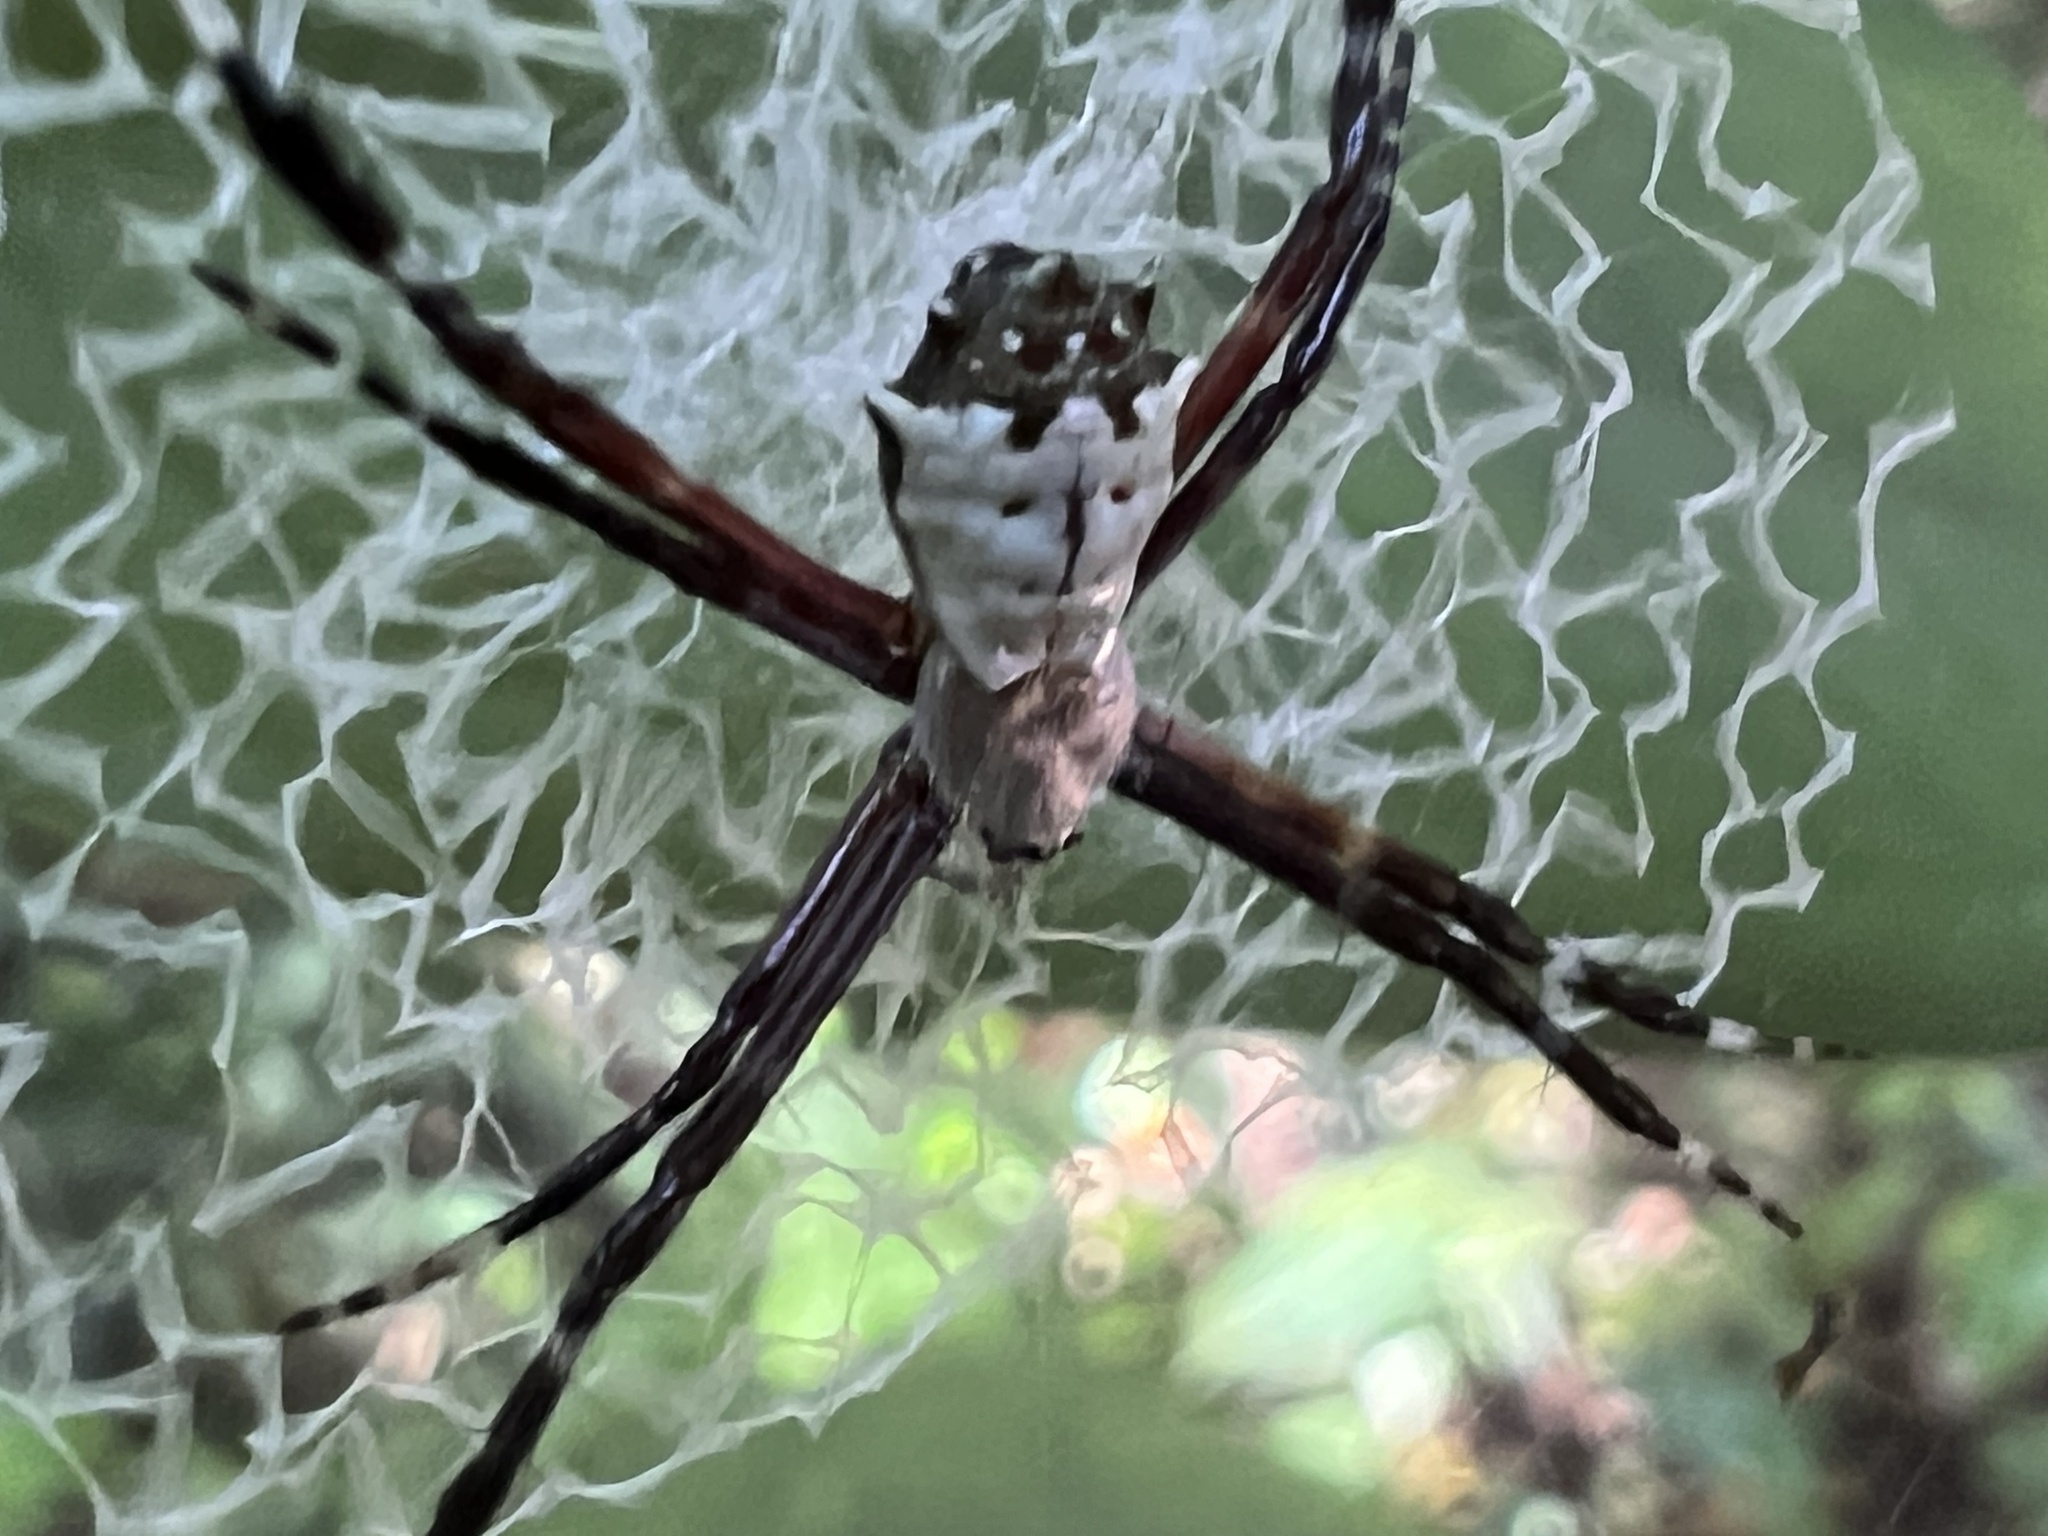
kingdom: Animalia
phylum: Arthropoda
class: Arachnida
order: Araneae
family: Araneidae
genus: Argiope
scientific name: Argiope submaronica
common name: Orb weavers
